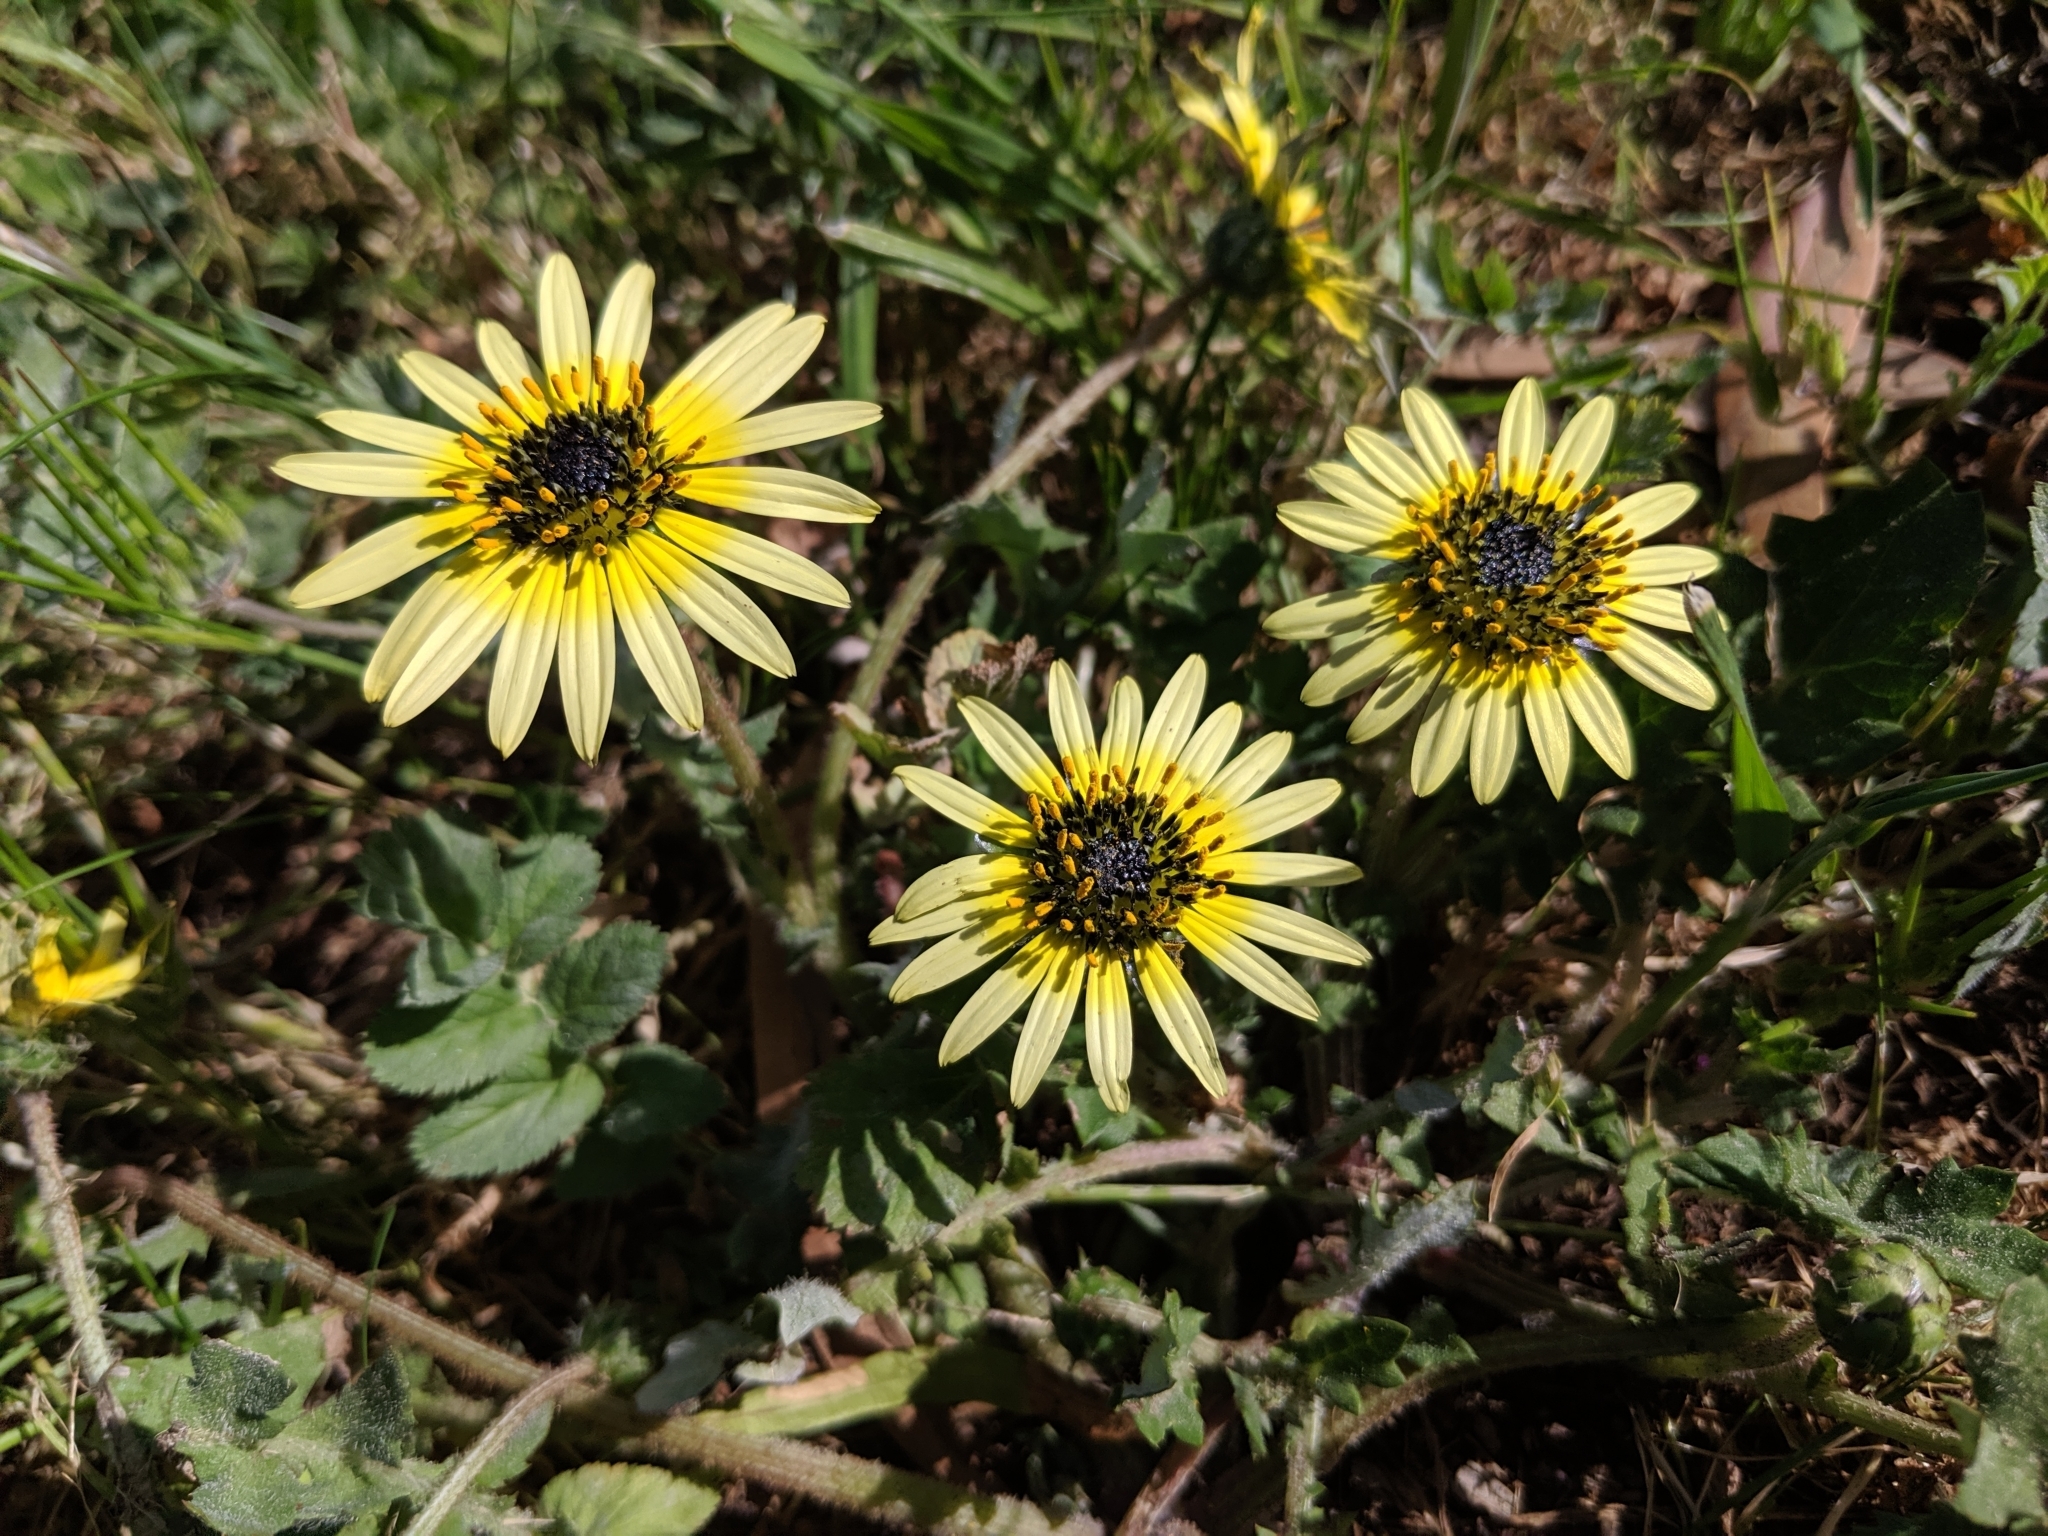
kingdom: Plantae
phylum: Tracheophyta
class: Magnoliopsida
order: Asterales
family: Asteraceae
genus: Arctotheca
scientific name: Arctotheca calendula
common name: Capeweed
